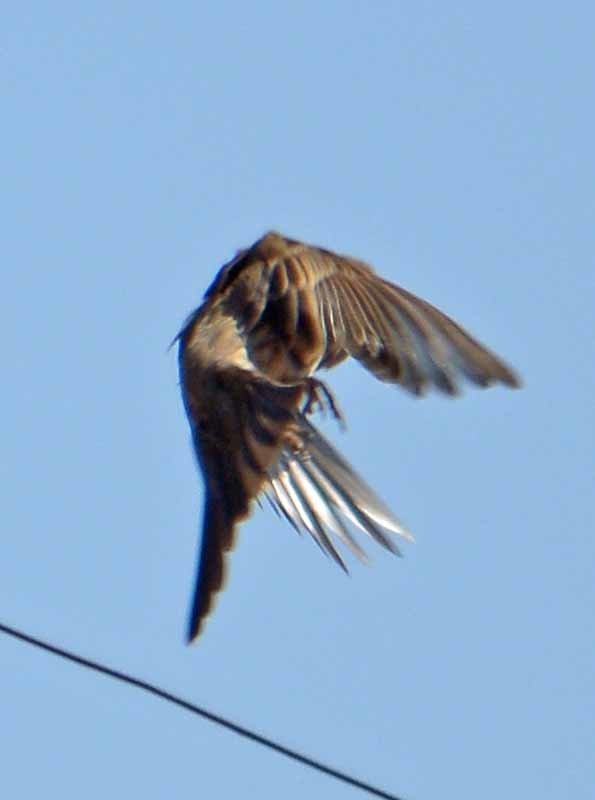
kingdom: Animalia
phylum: Chordata
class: Aves
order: Passeriformes
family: Fringillidae
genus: Haemorhous
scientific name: Haemorhous mexicanus
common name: House finch
